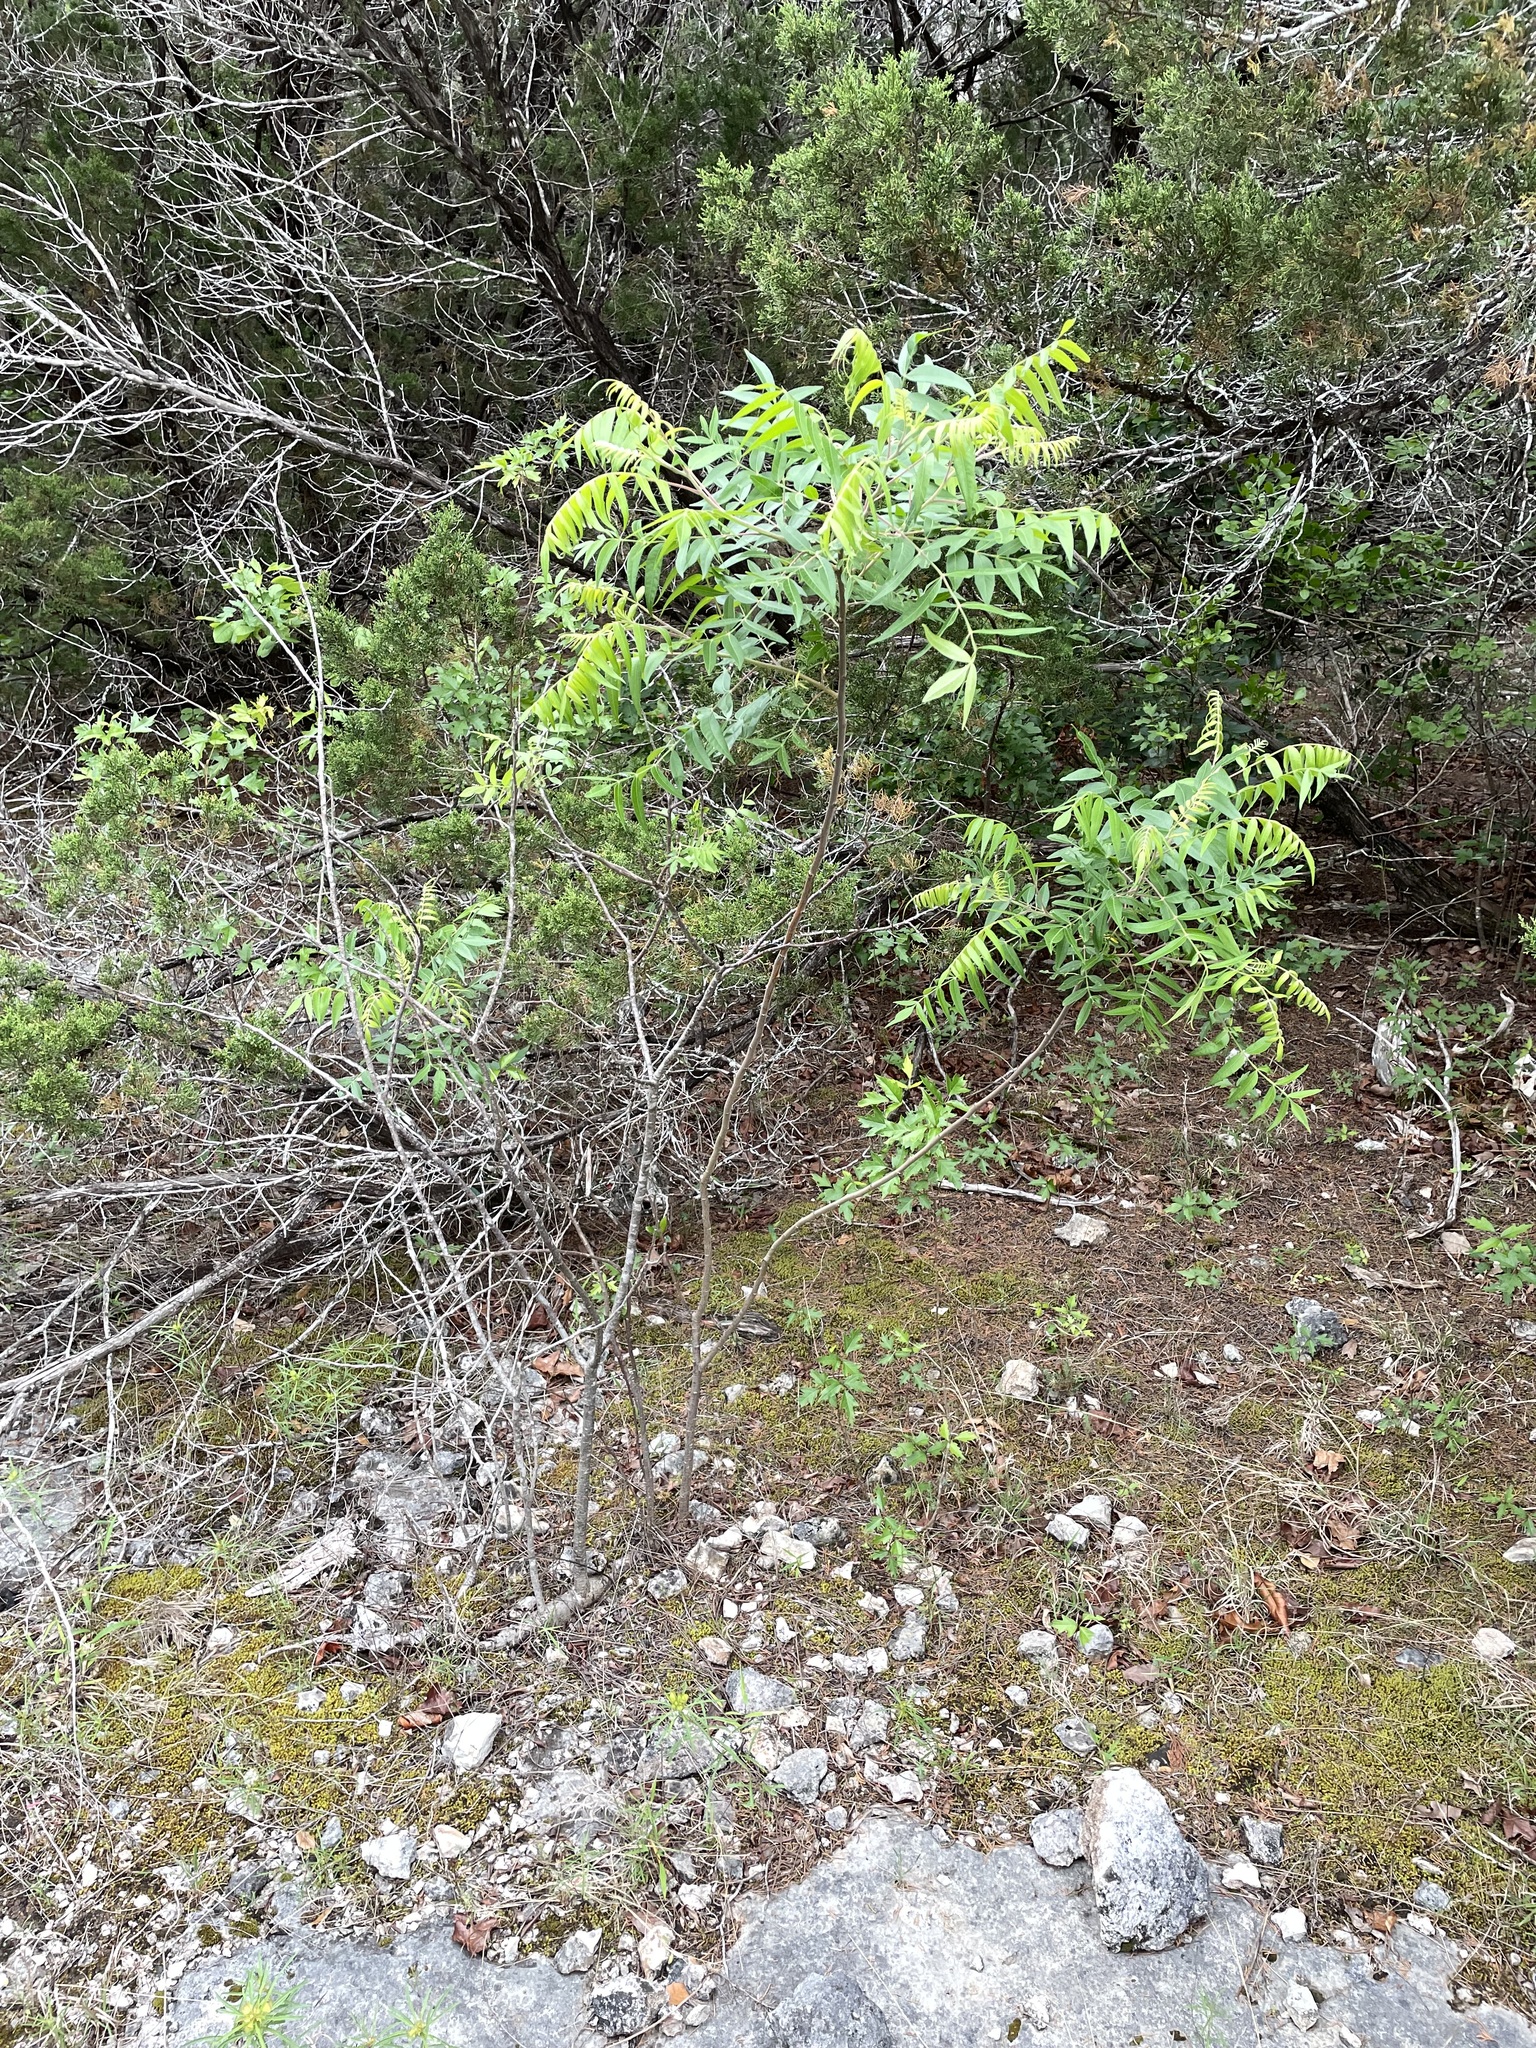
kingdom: Plantae
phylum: Tracheophyta
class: Magnoliopsida
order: Sapindales
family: Anacardiaceae
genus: Rhus
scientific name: Rhus lanceolata
